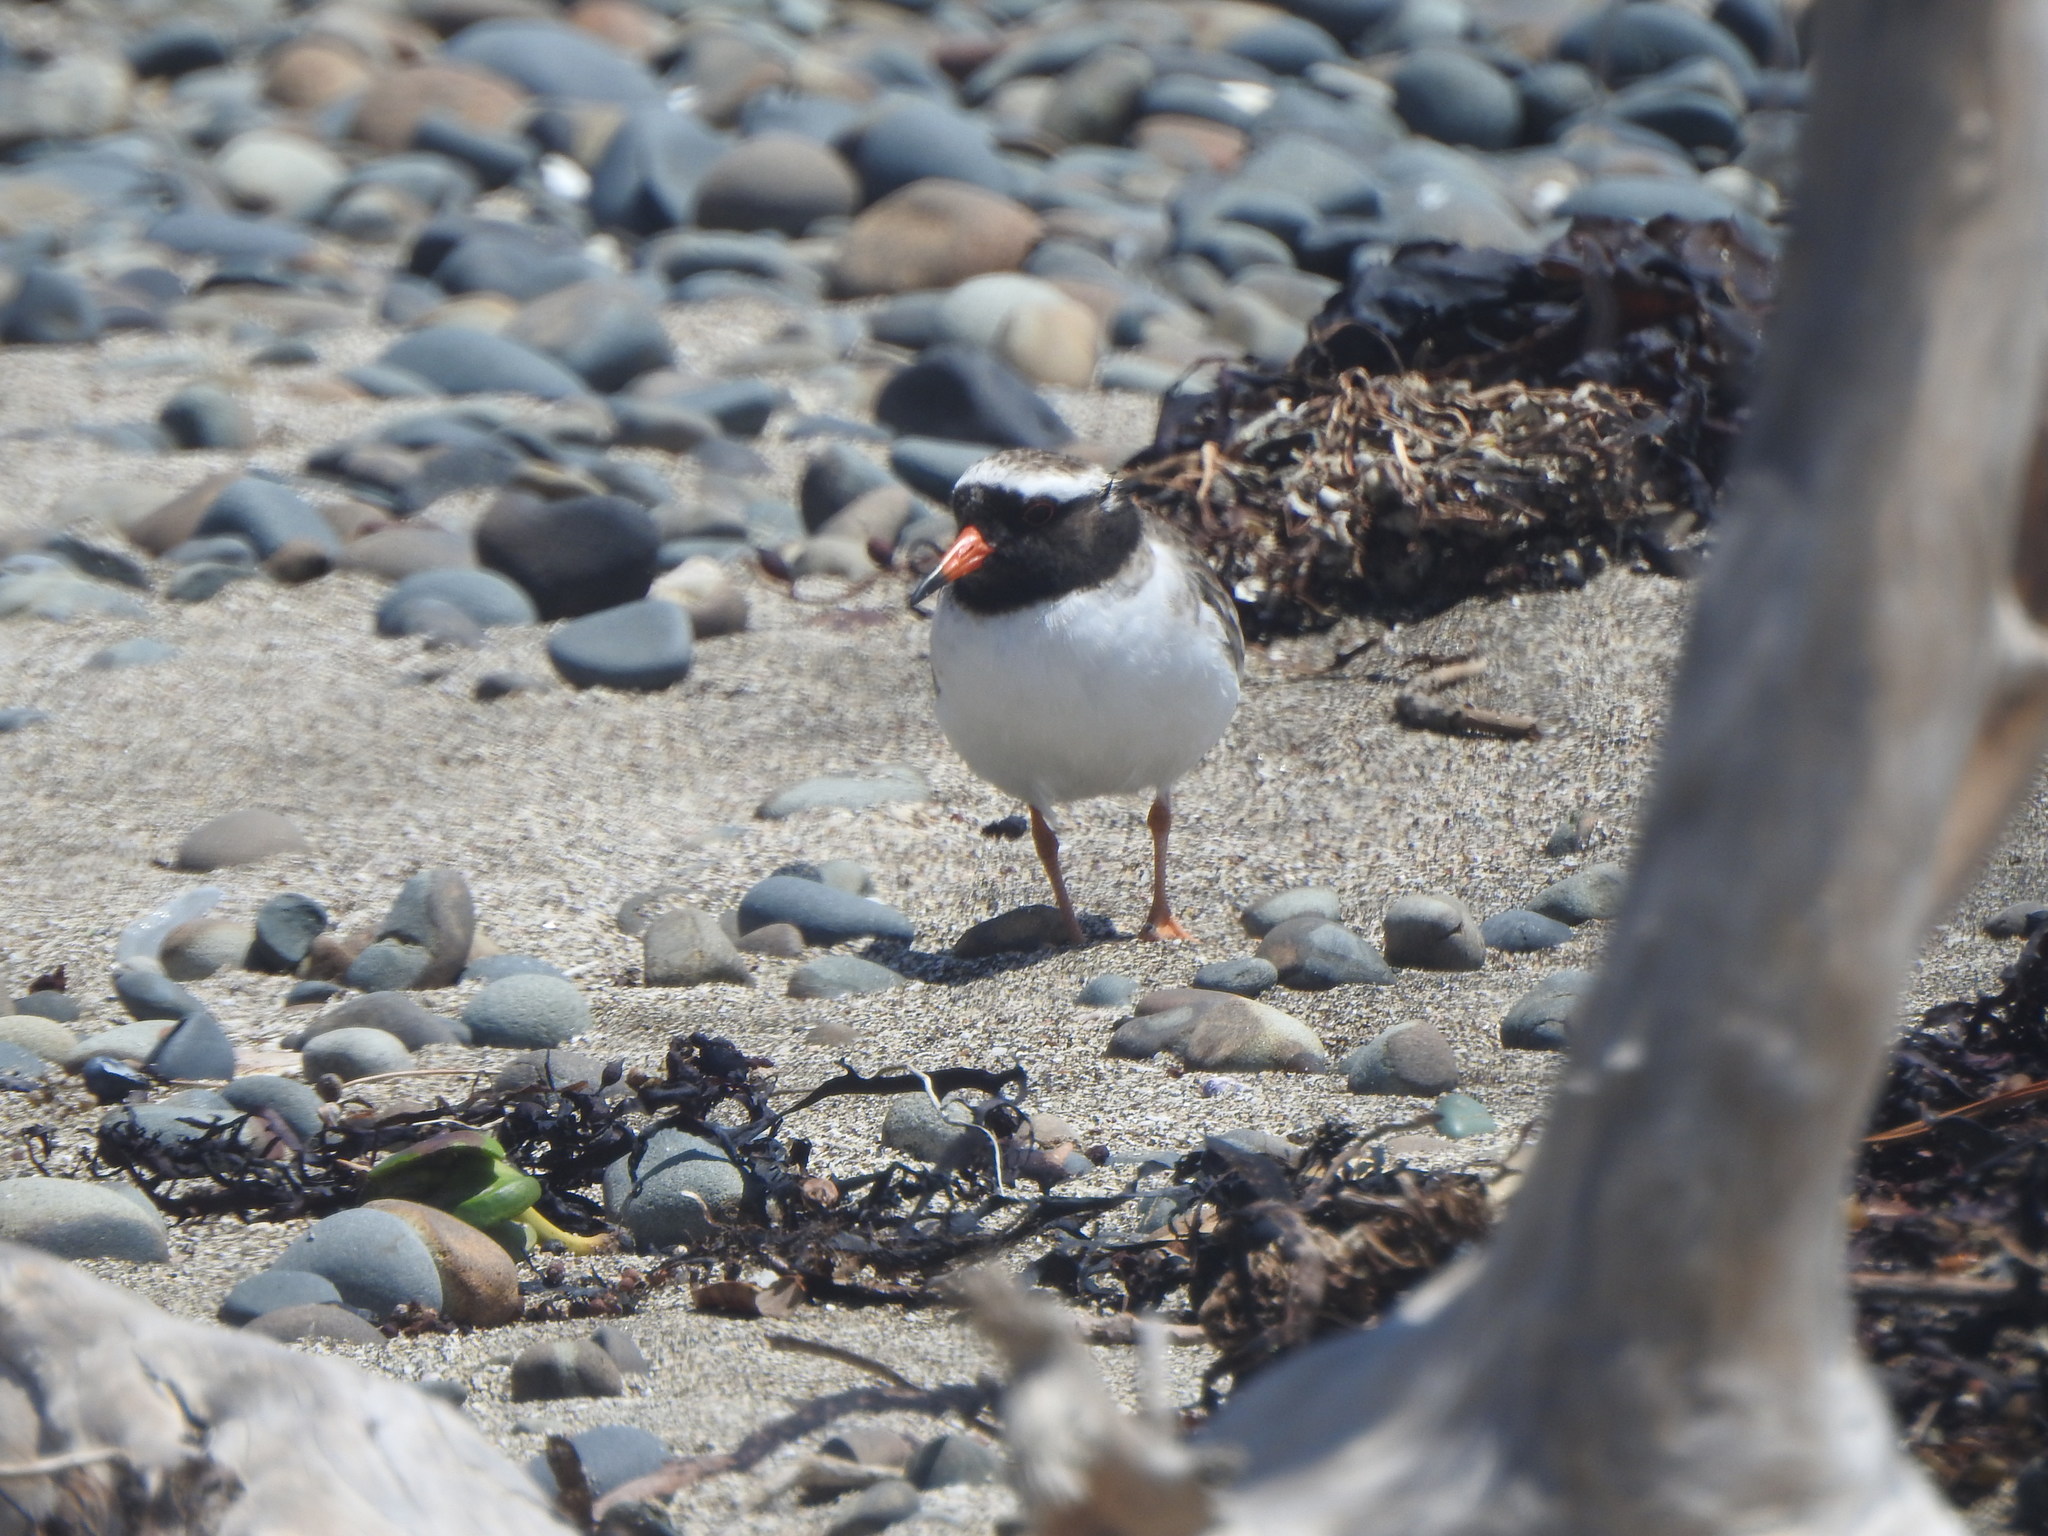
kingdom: Animalia
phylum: Chordata
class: Aves
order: Charadriiformes
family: Charadriidae
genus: Thinornis
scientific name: Thinornis novaeseelandiae
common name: Shore dotterel
